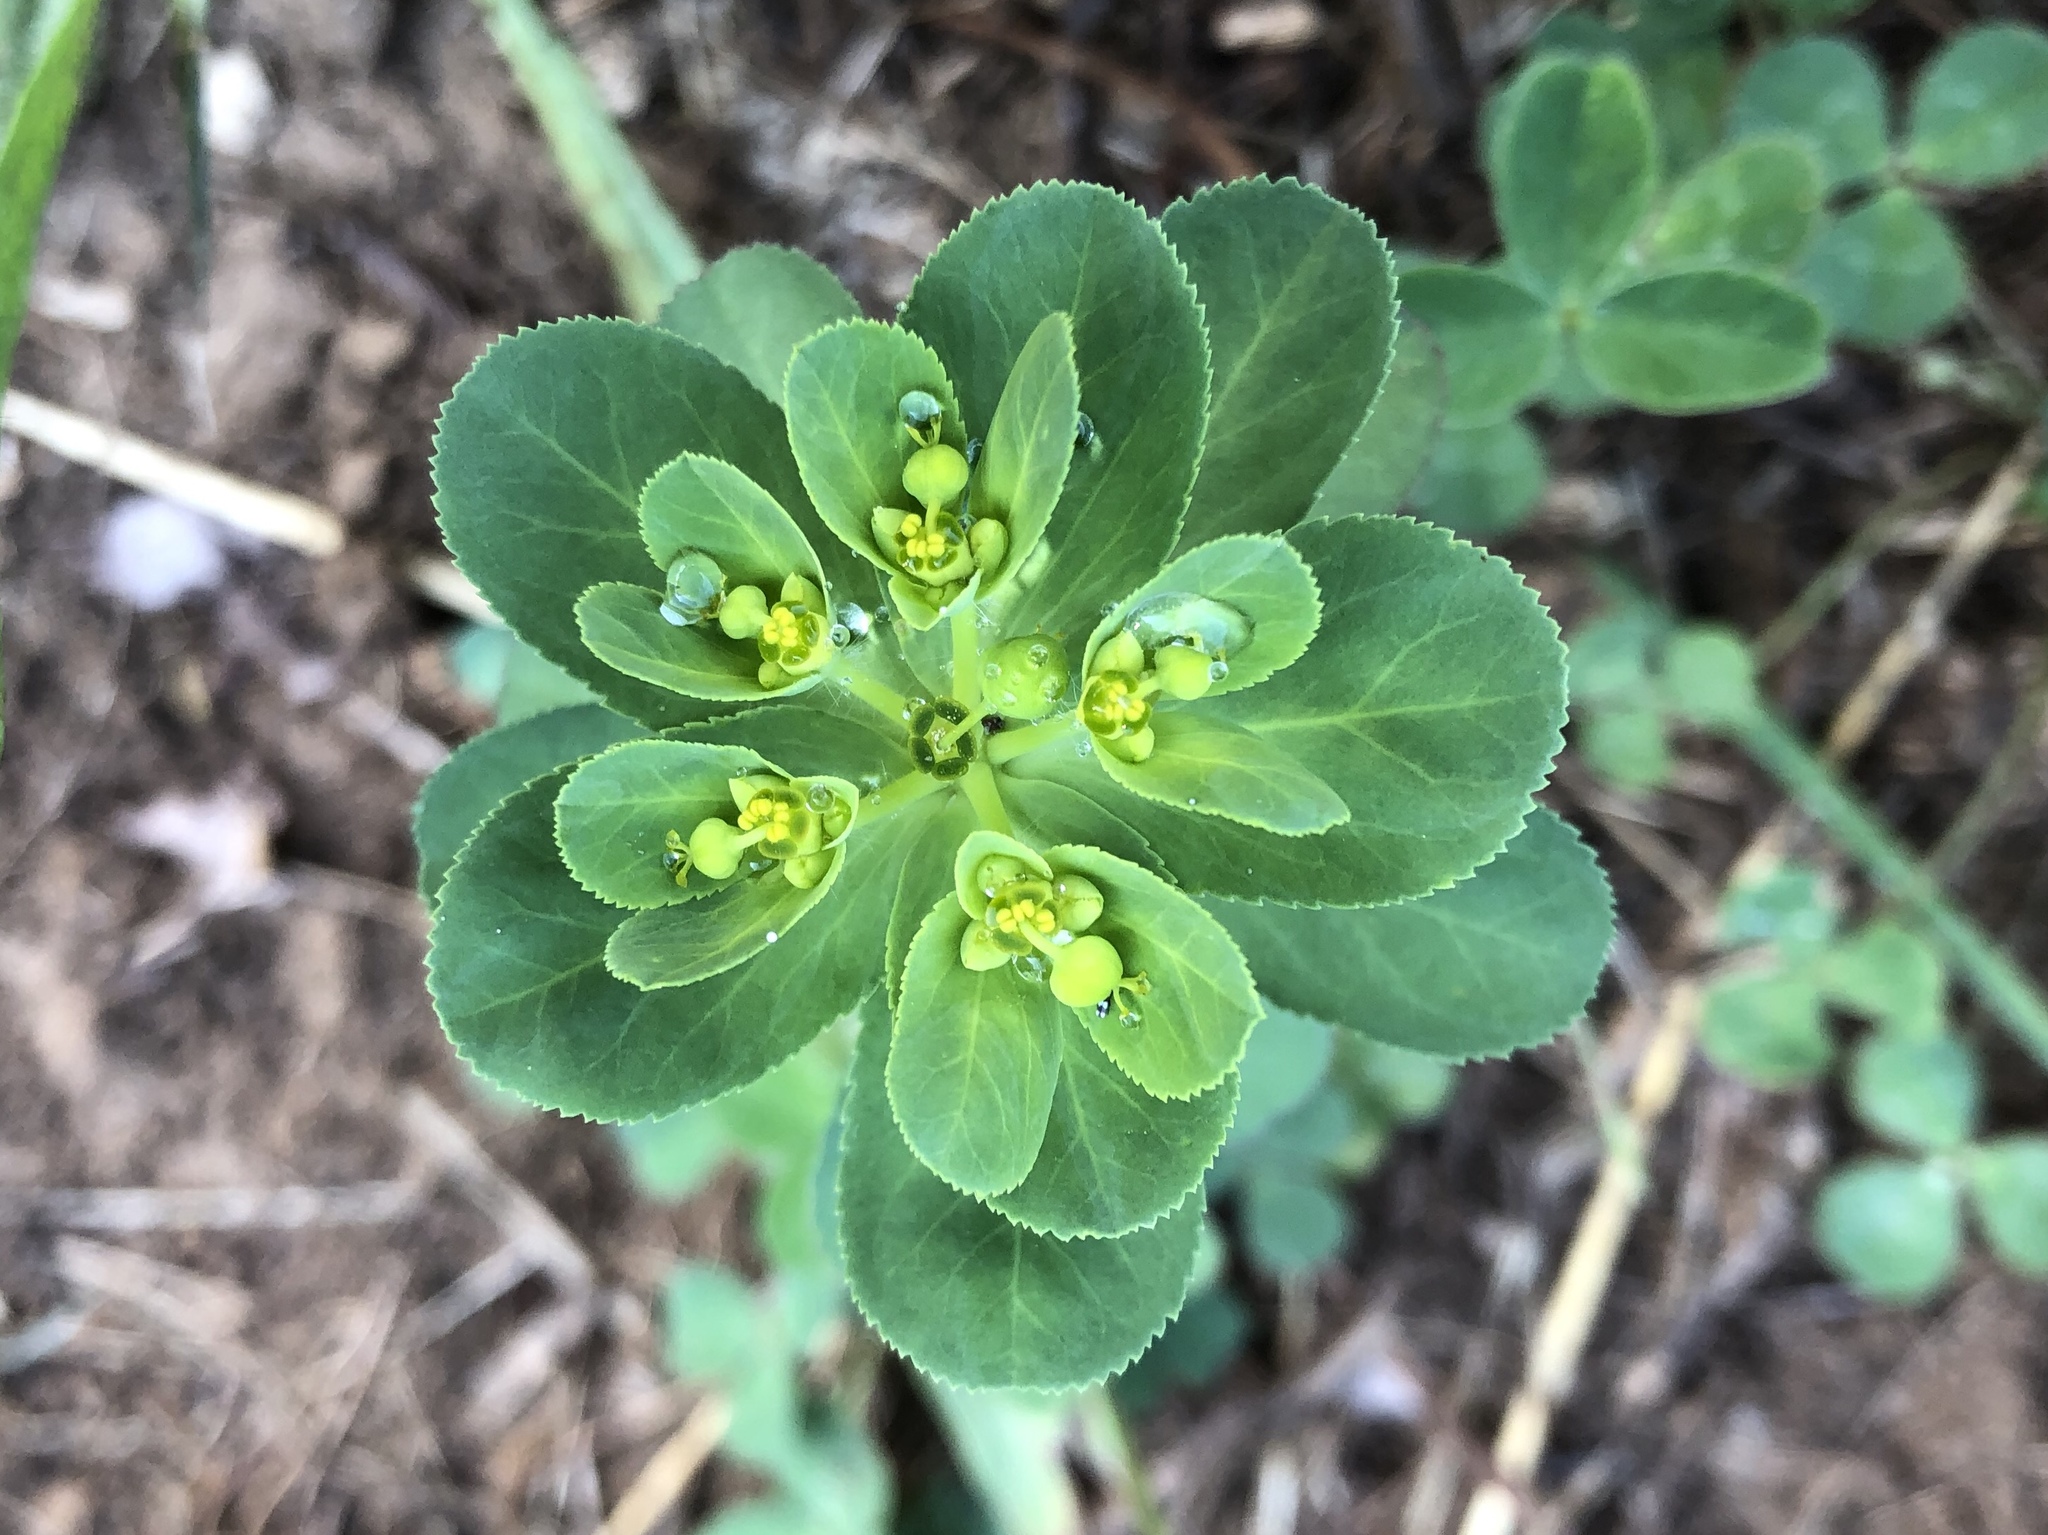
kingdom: Plantae
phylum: Tracheophyta
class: Magnoliopsida
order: Malpighiales
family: Euphorbiaceae
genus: Euphorbia
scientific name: Euphorbia helioscopia
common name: Sun spurge
